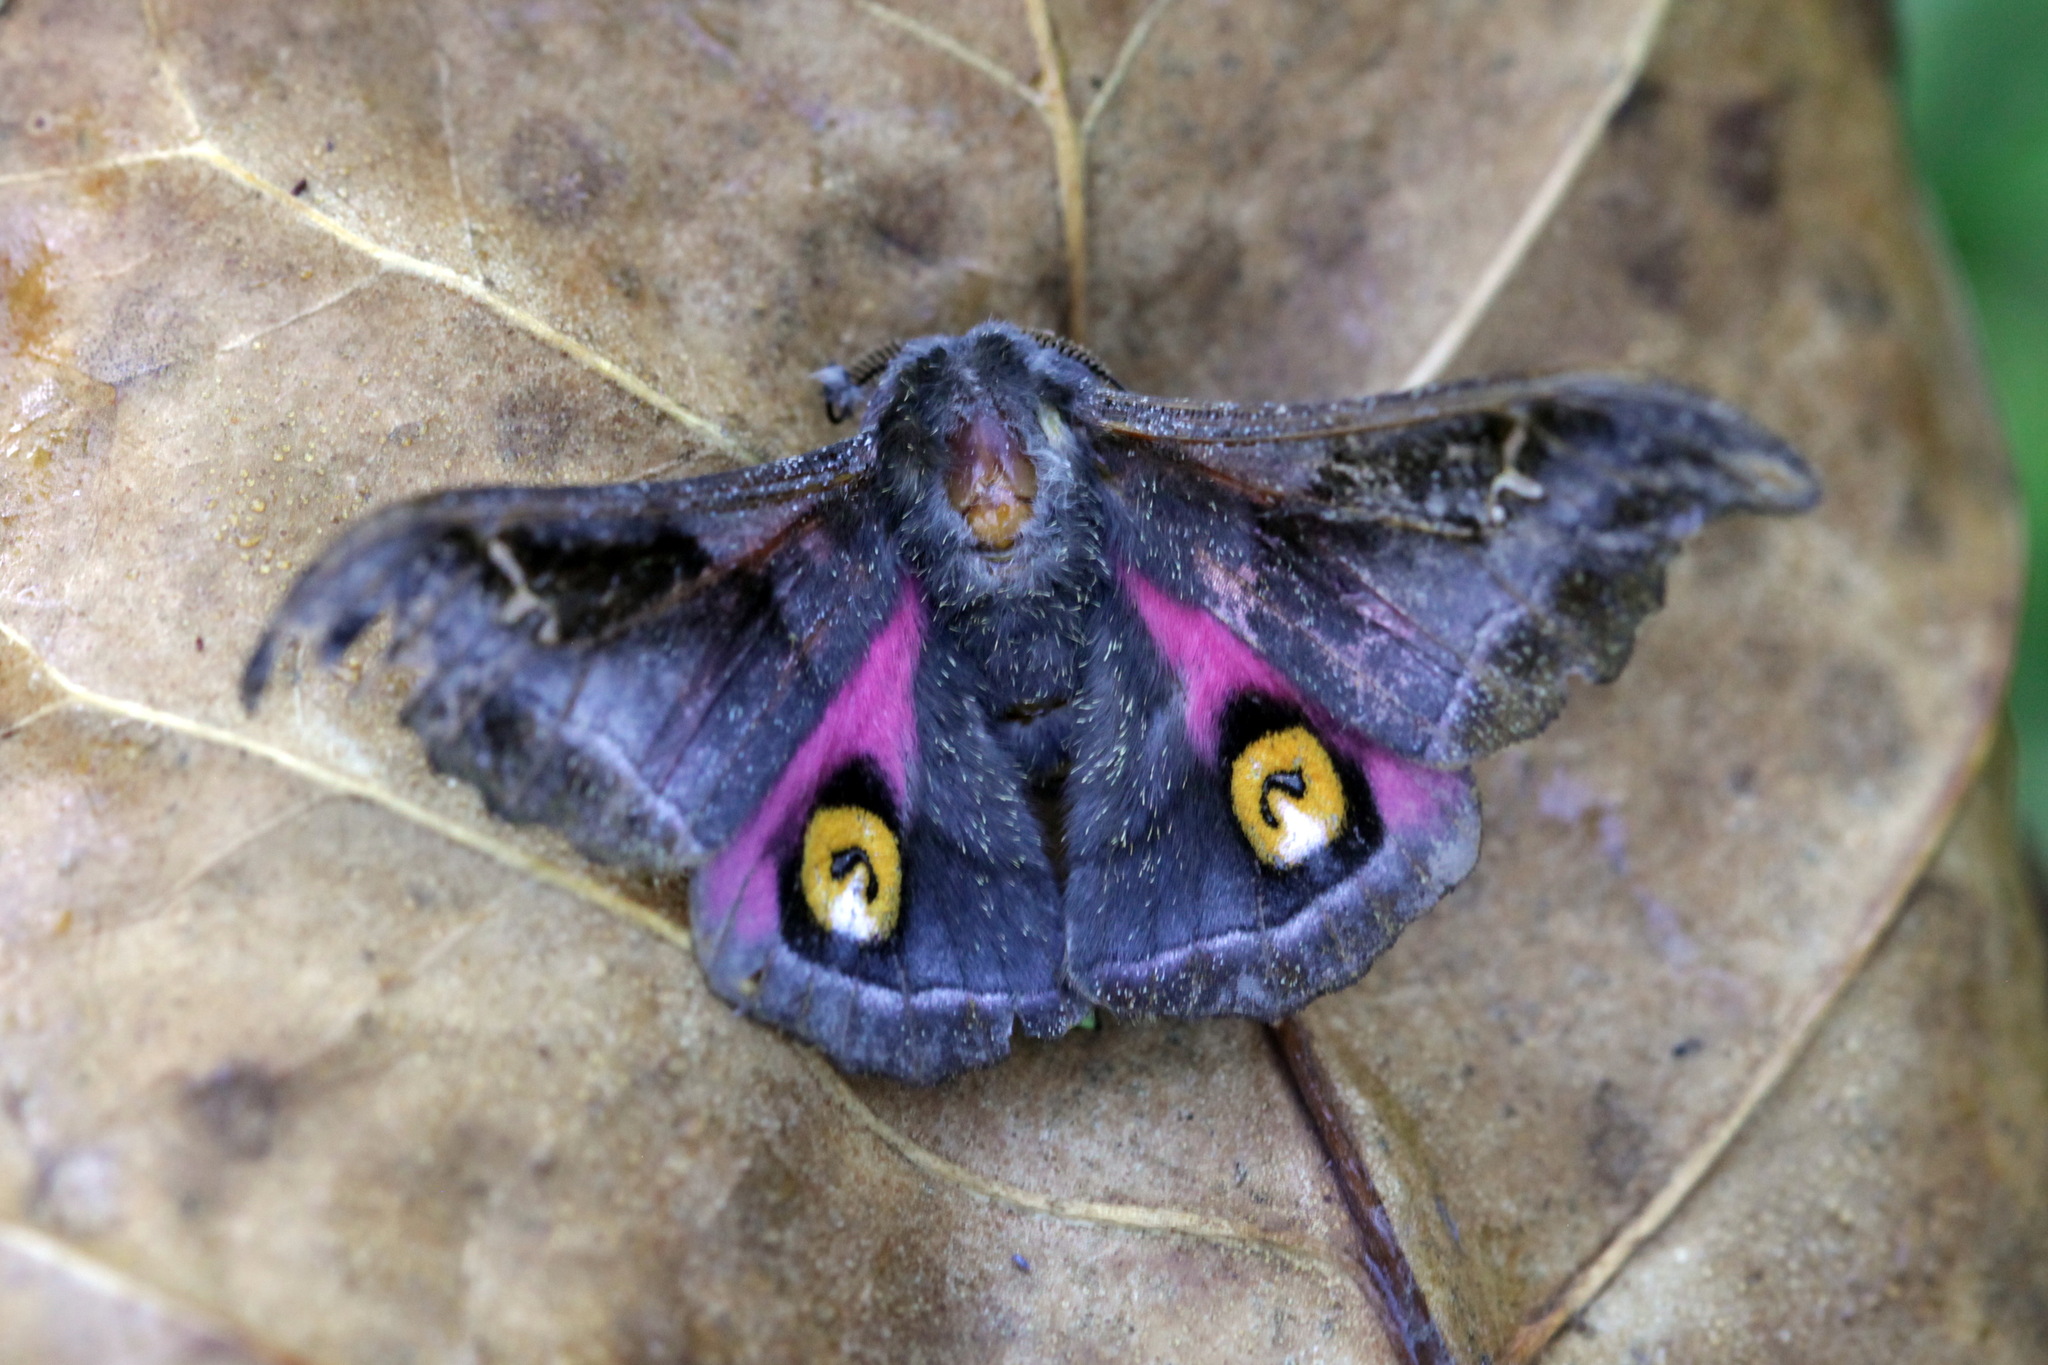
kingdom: Animalia
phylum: Arthropoda
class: Insecta
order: Lepidoptera
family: Saturniidae
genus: Ludia
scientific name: Ludia orinoptena
